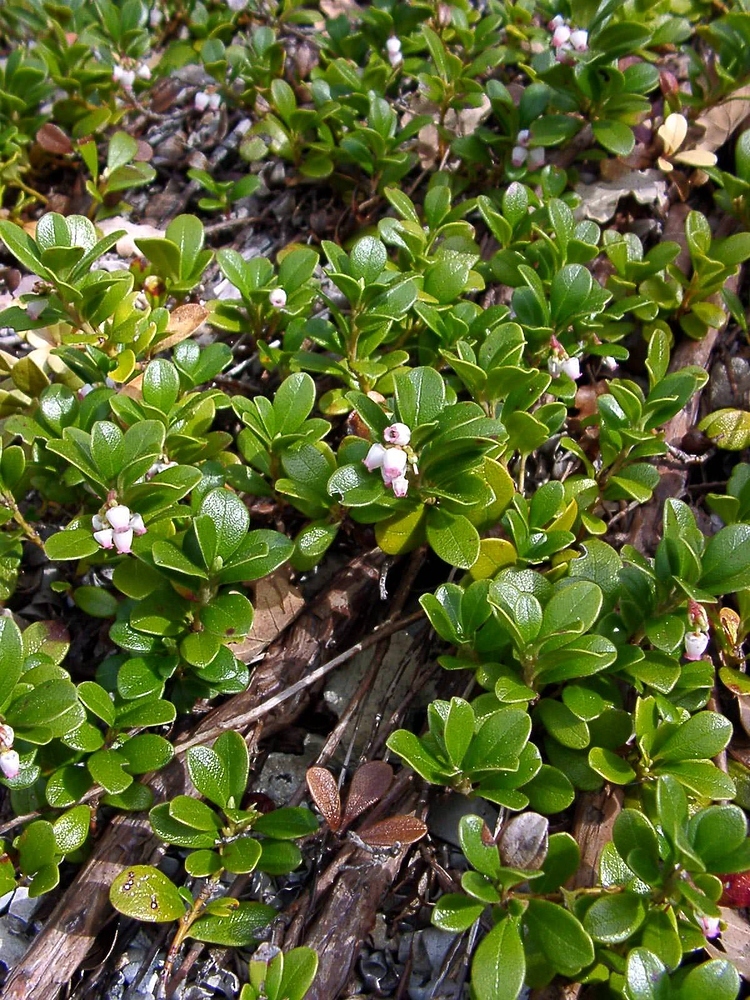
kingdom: Plantae
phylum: Tracheophyta
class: Magnoliopsida
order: Ericales
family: Ericaceae
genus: Arctostaphylos
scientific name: Arctostaphylos uva-ursi
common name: Bearberry
